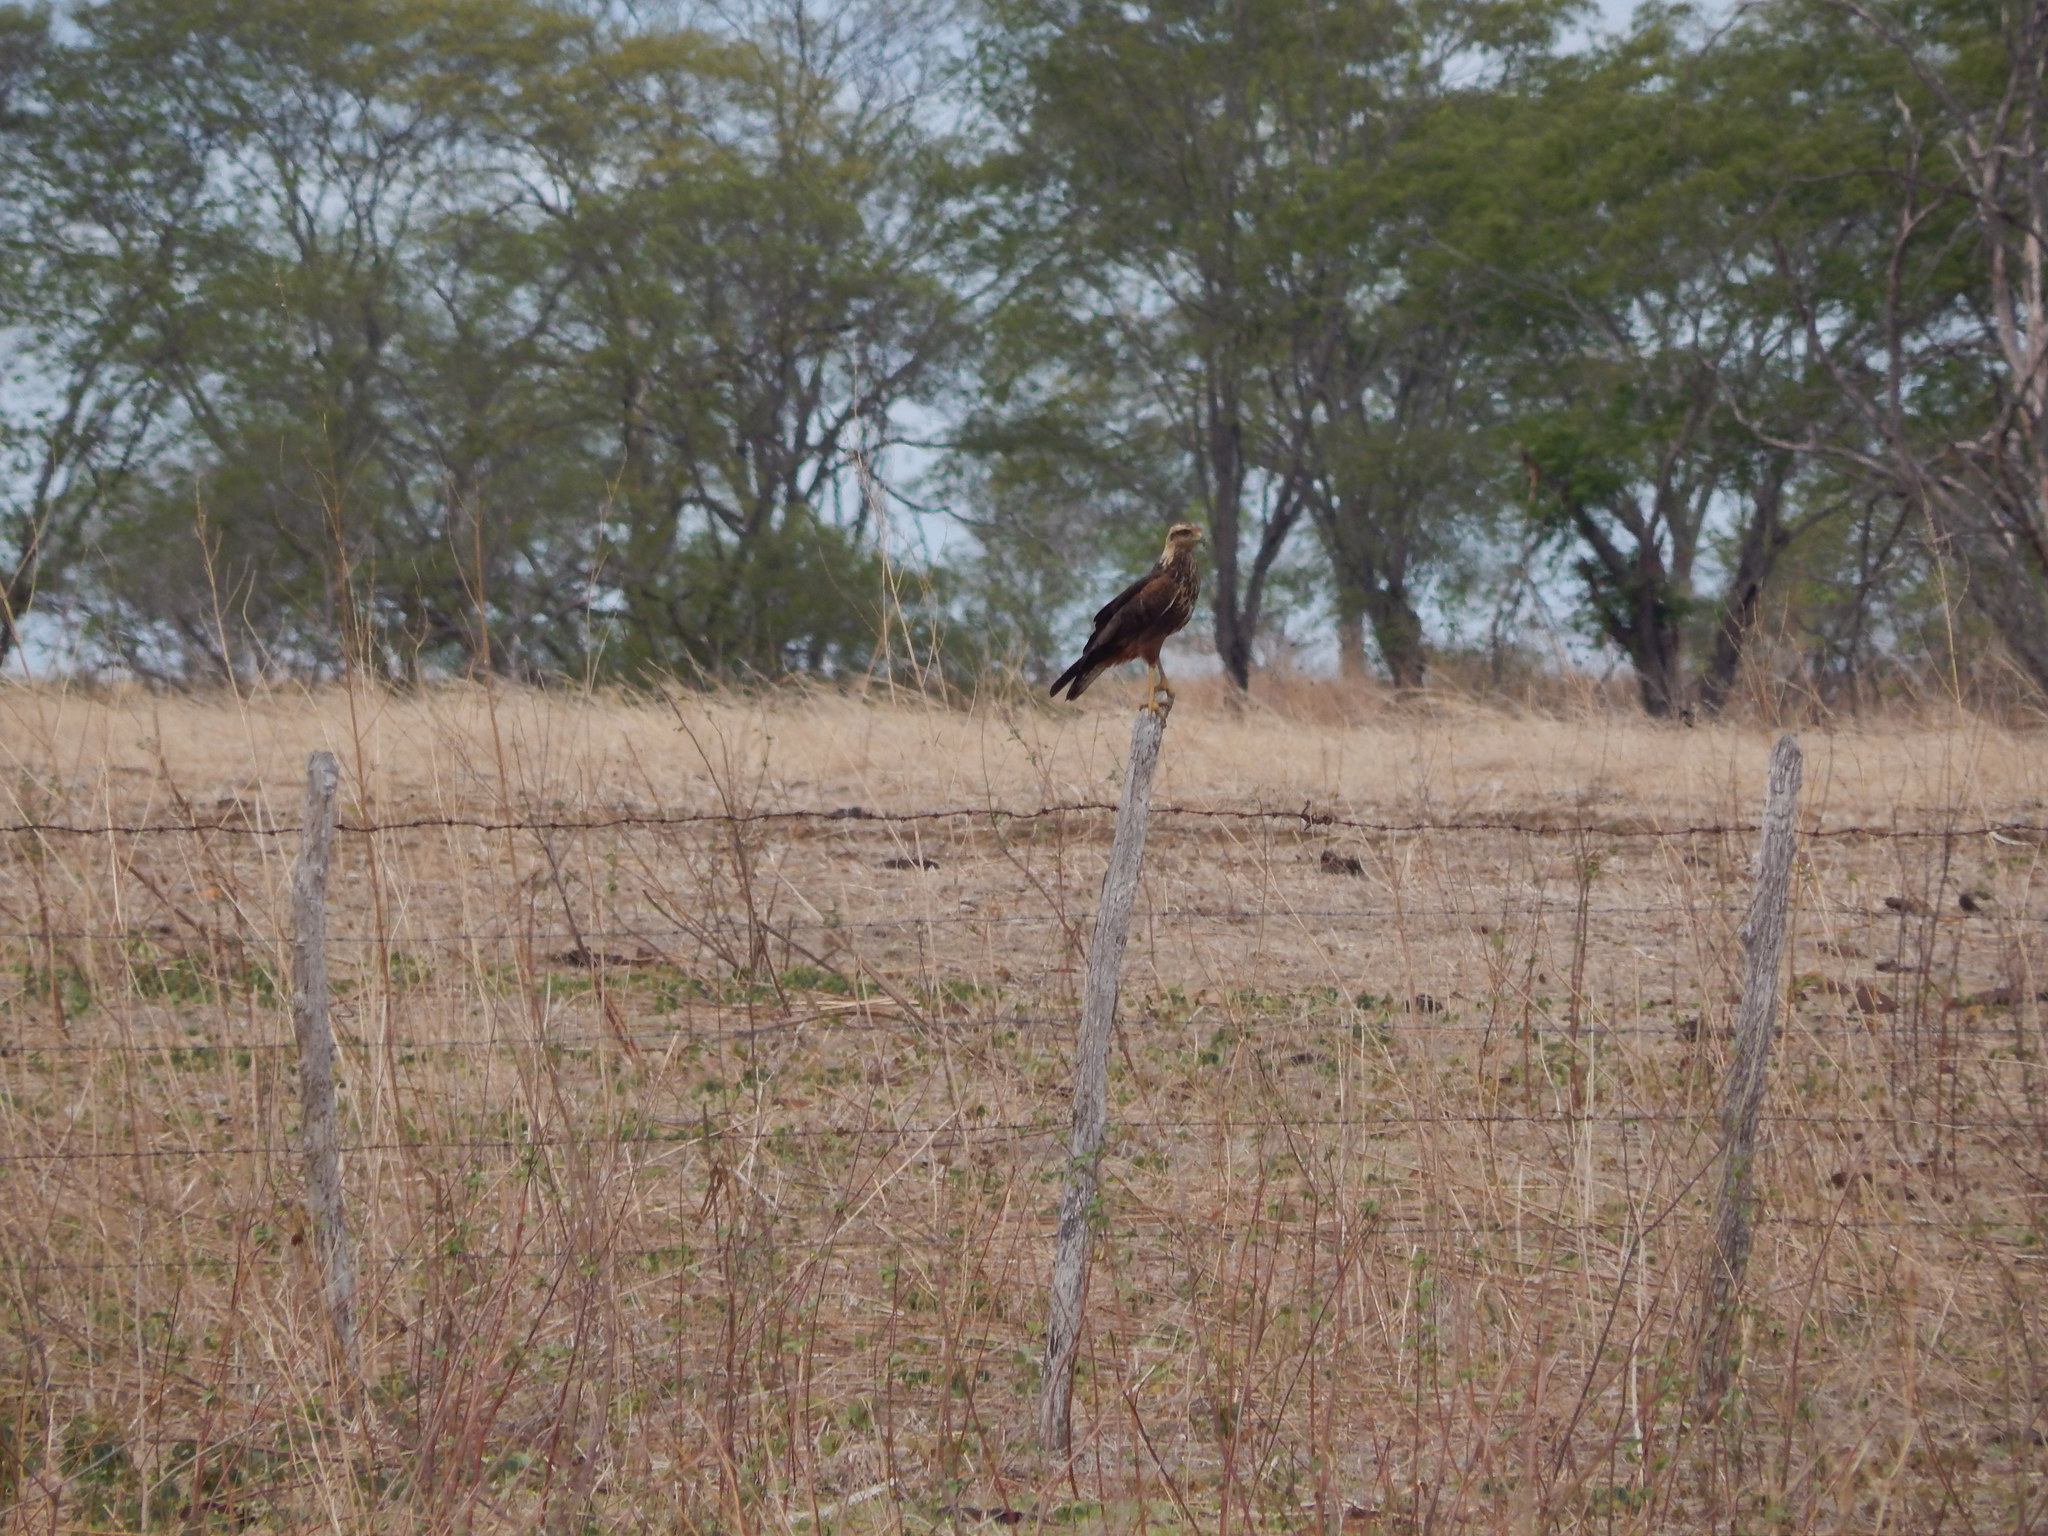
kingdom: Animalia
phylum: Chordata
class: Aves
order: Accipitriformes
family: Accipitridae
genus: Buteogallus
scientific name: Buteogallus meridionalis
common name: Savanna hawk
